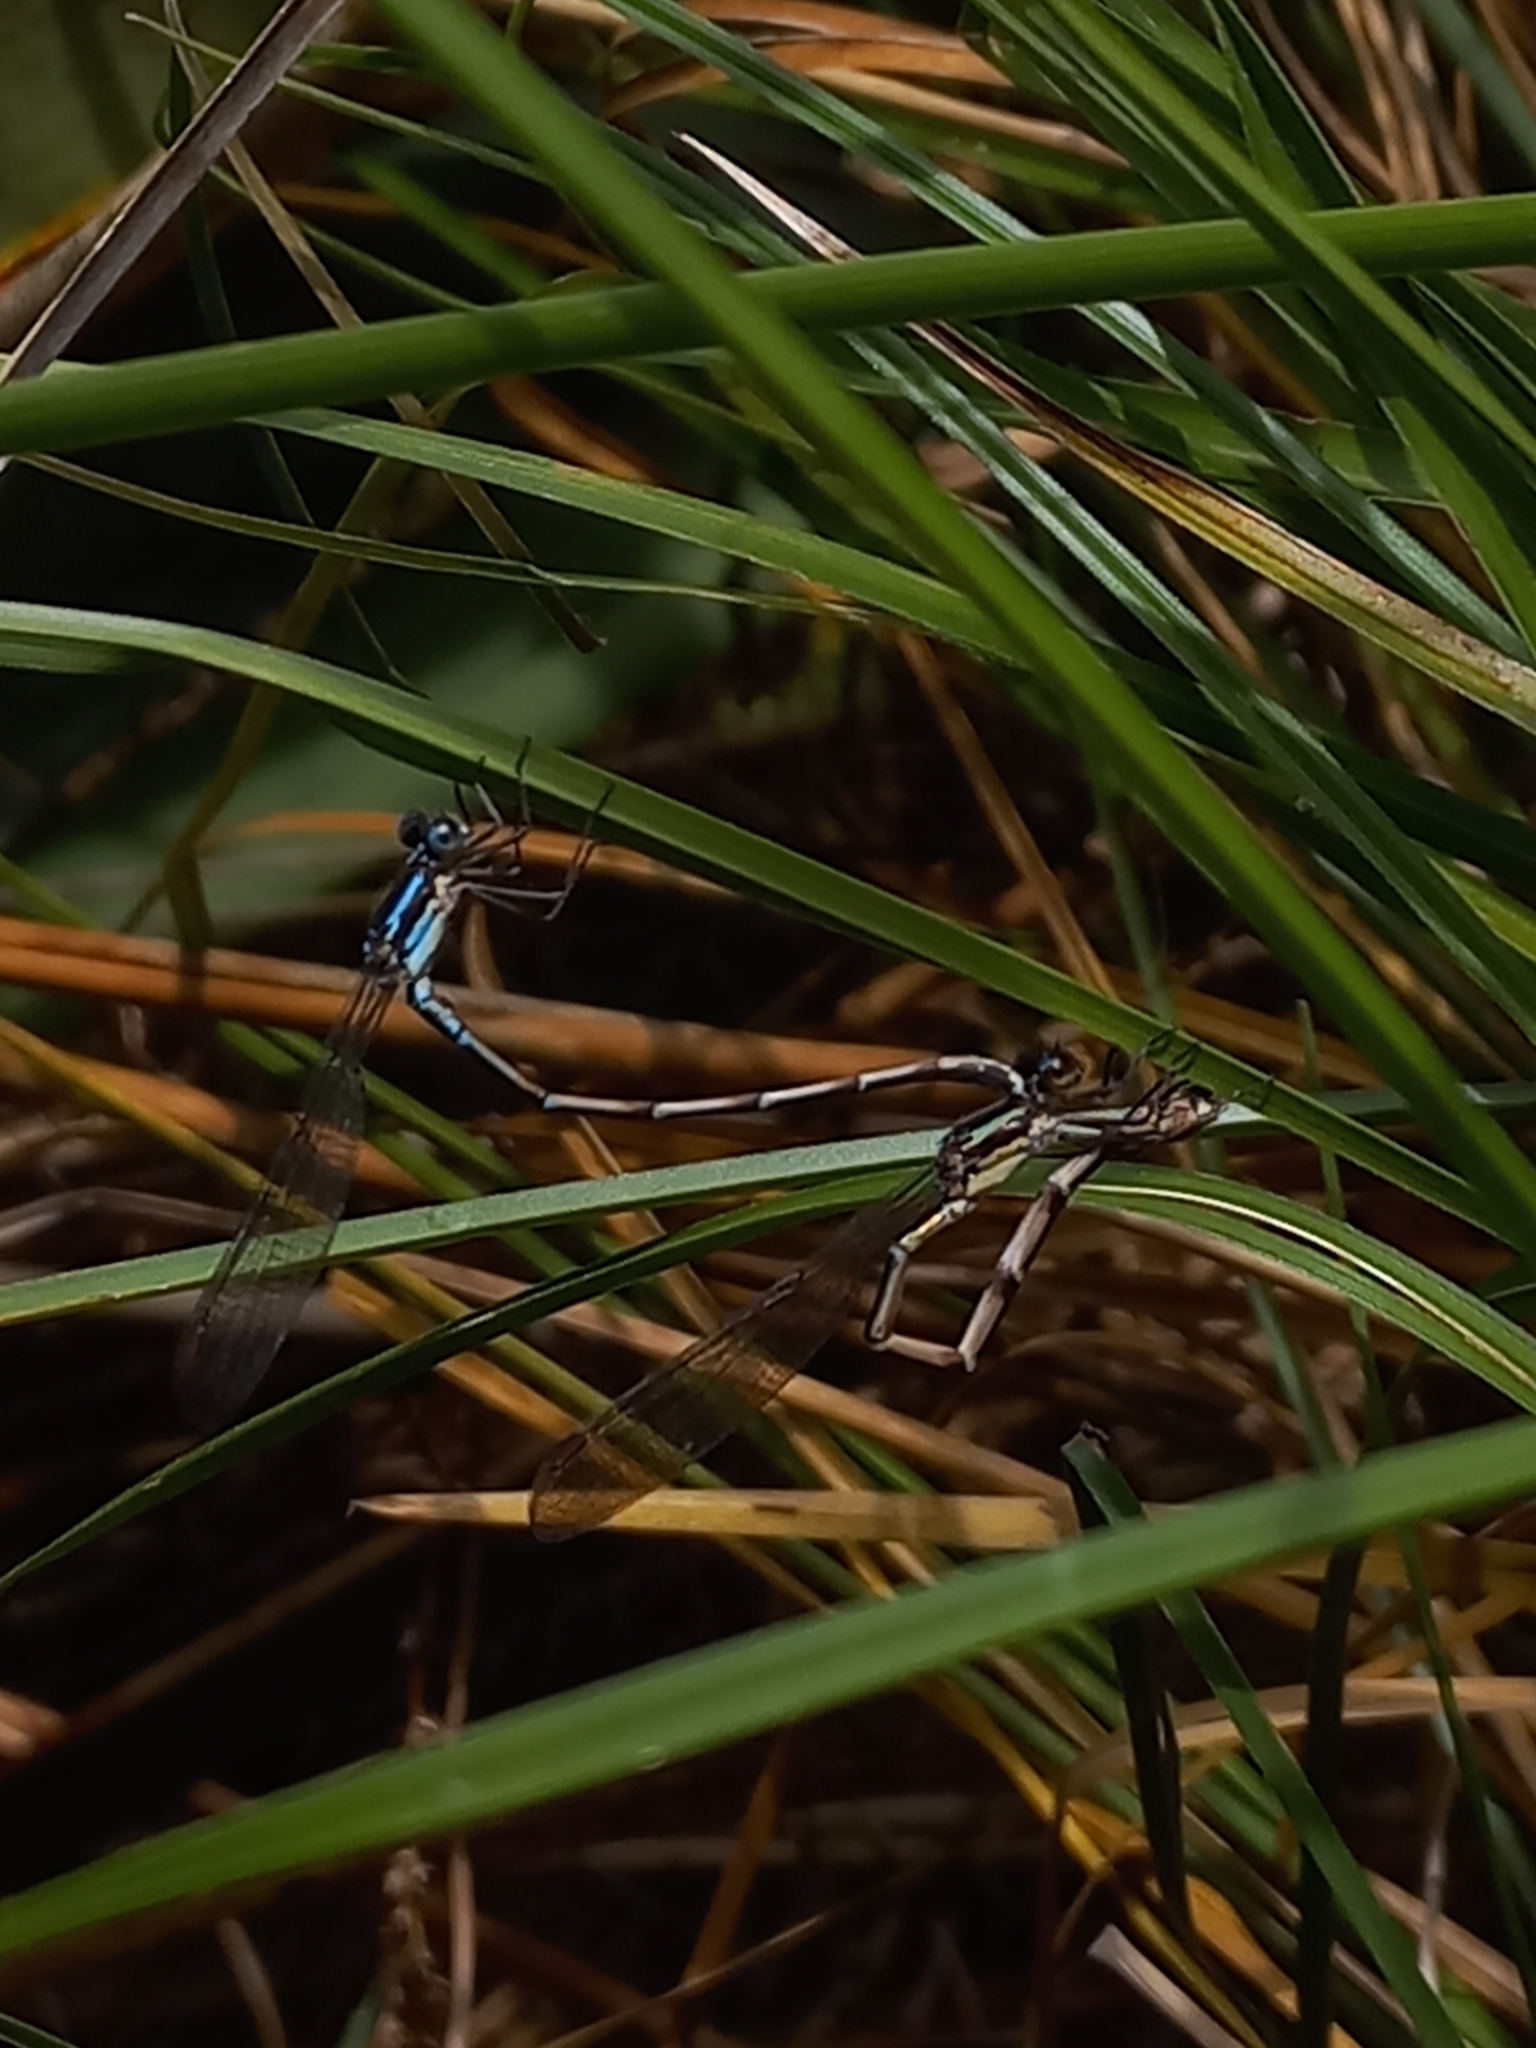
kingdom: Animalia
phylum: Arthropoda
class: Insecta
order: Odonata
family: Lestidae
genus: Austrolestes
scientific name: Austrolestes colensonis
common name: Blue damselfly
